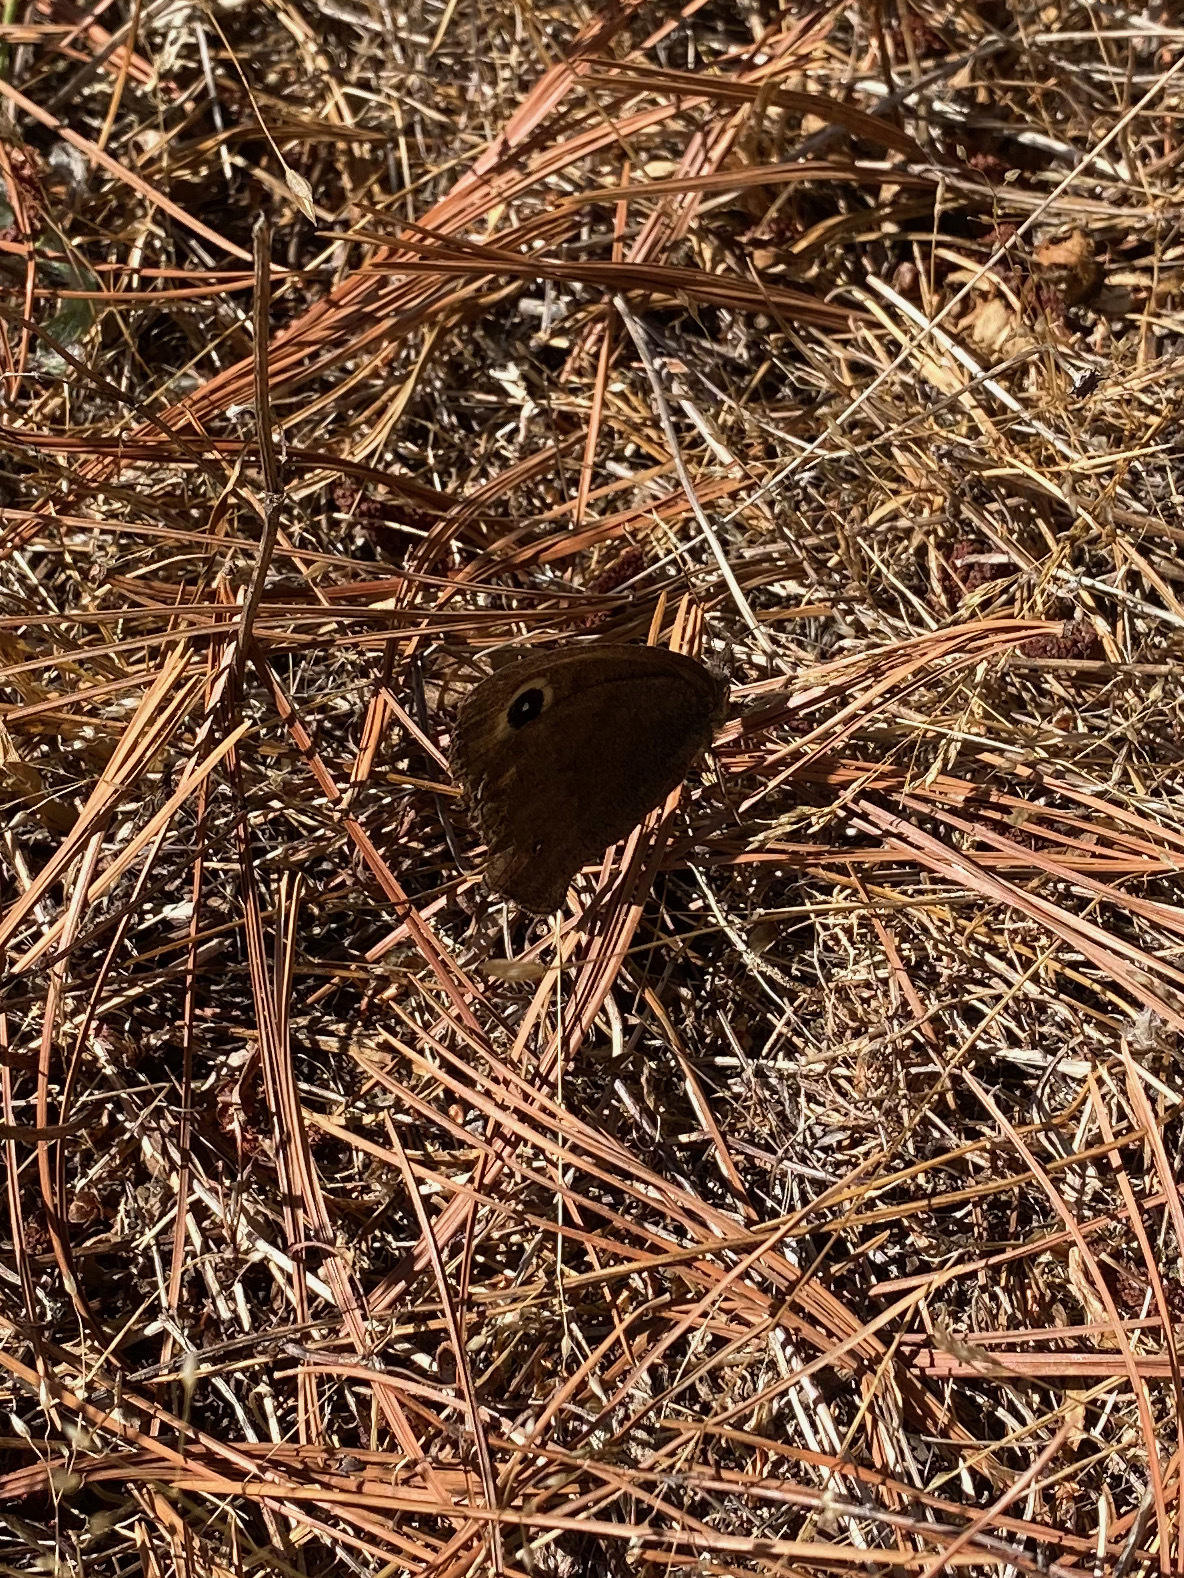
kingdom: Animalia
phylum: Arthropoda
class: Insecta
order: Lepidoptera
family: Nymphalidae
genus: Cercyonis
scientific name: Cercyonis pegala
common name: Common wood-nymph
